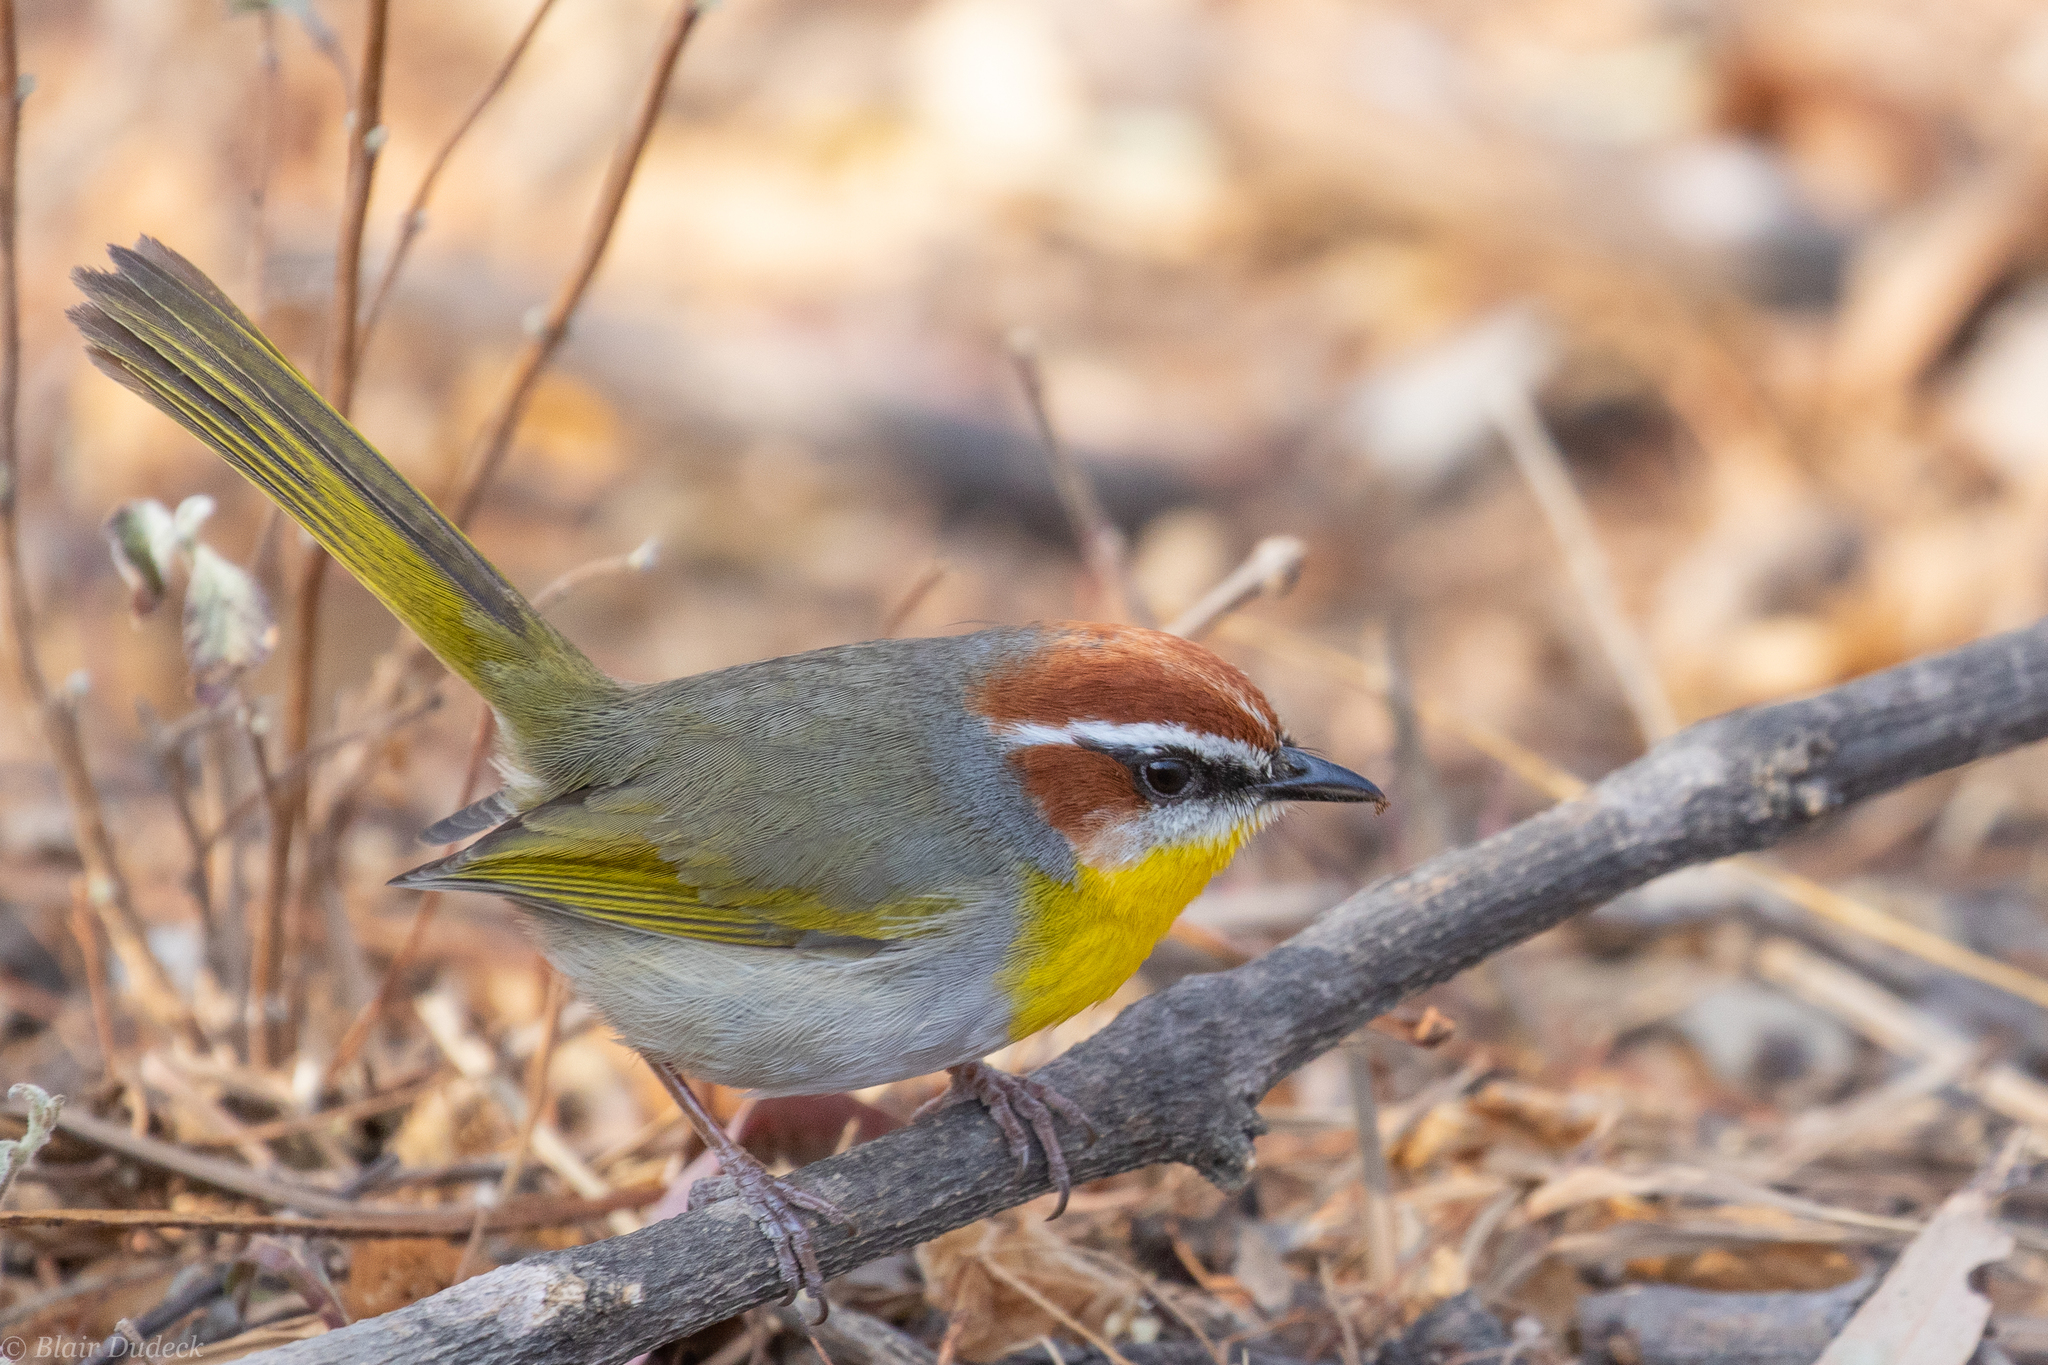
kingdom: Animalia
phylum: Chordata
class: Aves
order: Passeriformes
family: Parulidae
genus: Basileuterus
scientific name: Basileuterus rufifrons
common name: Rufous-capped warbler
